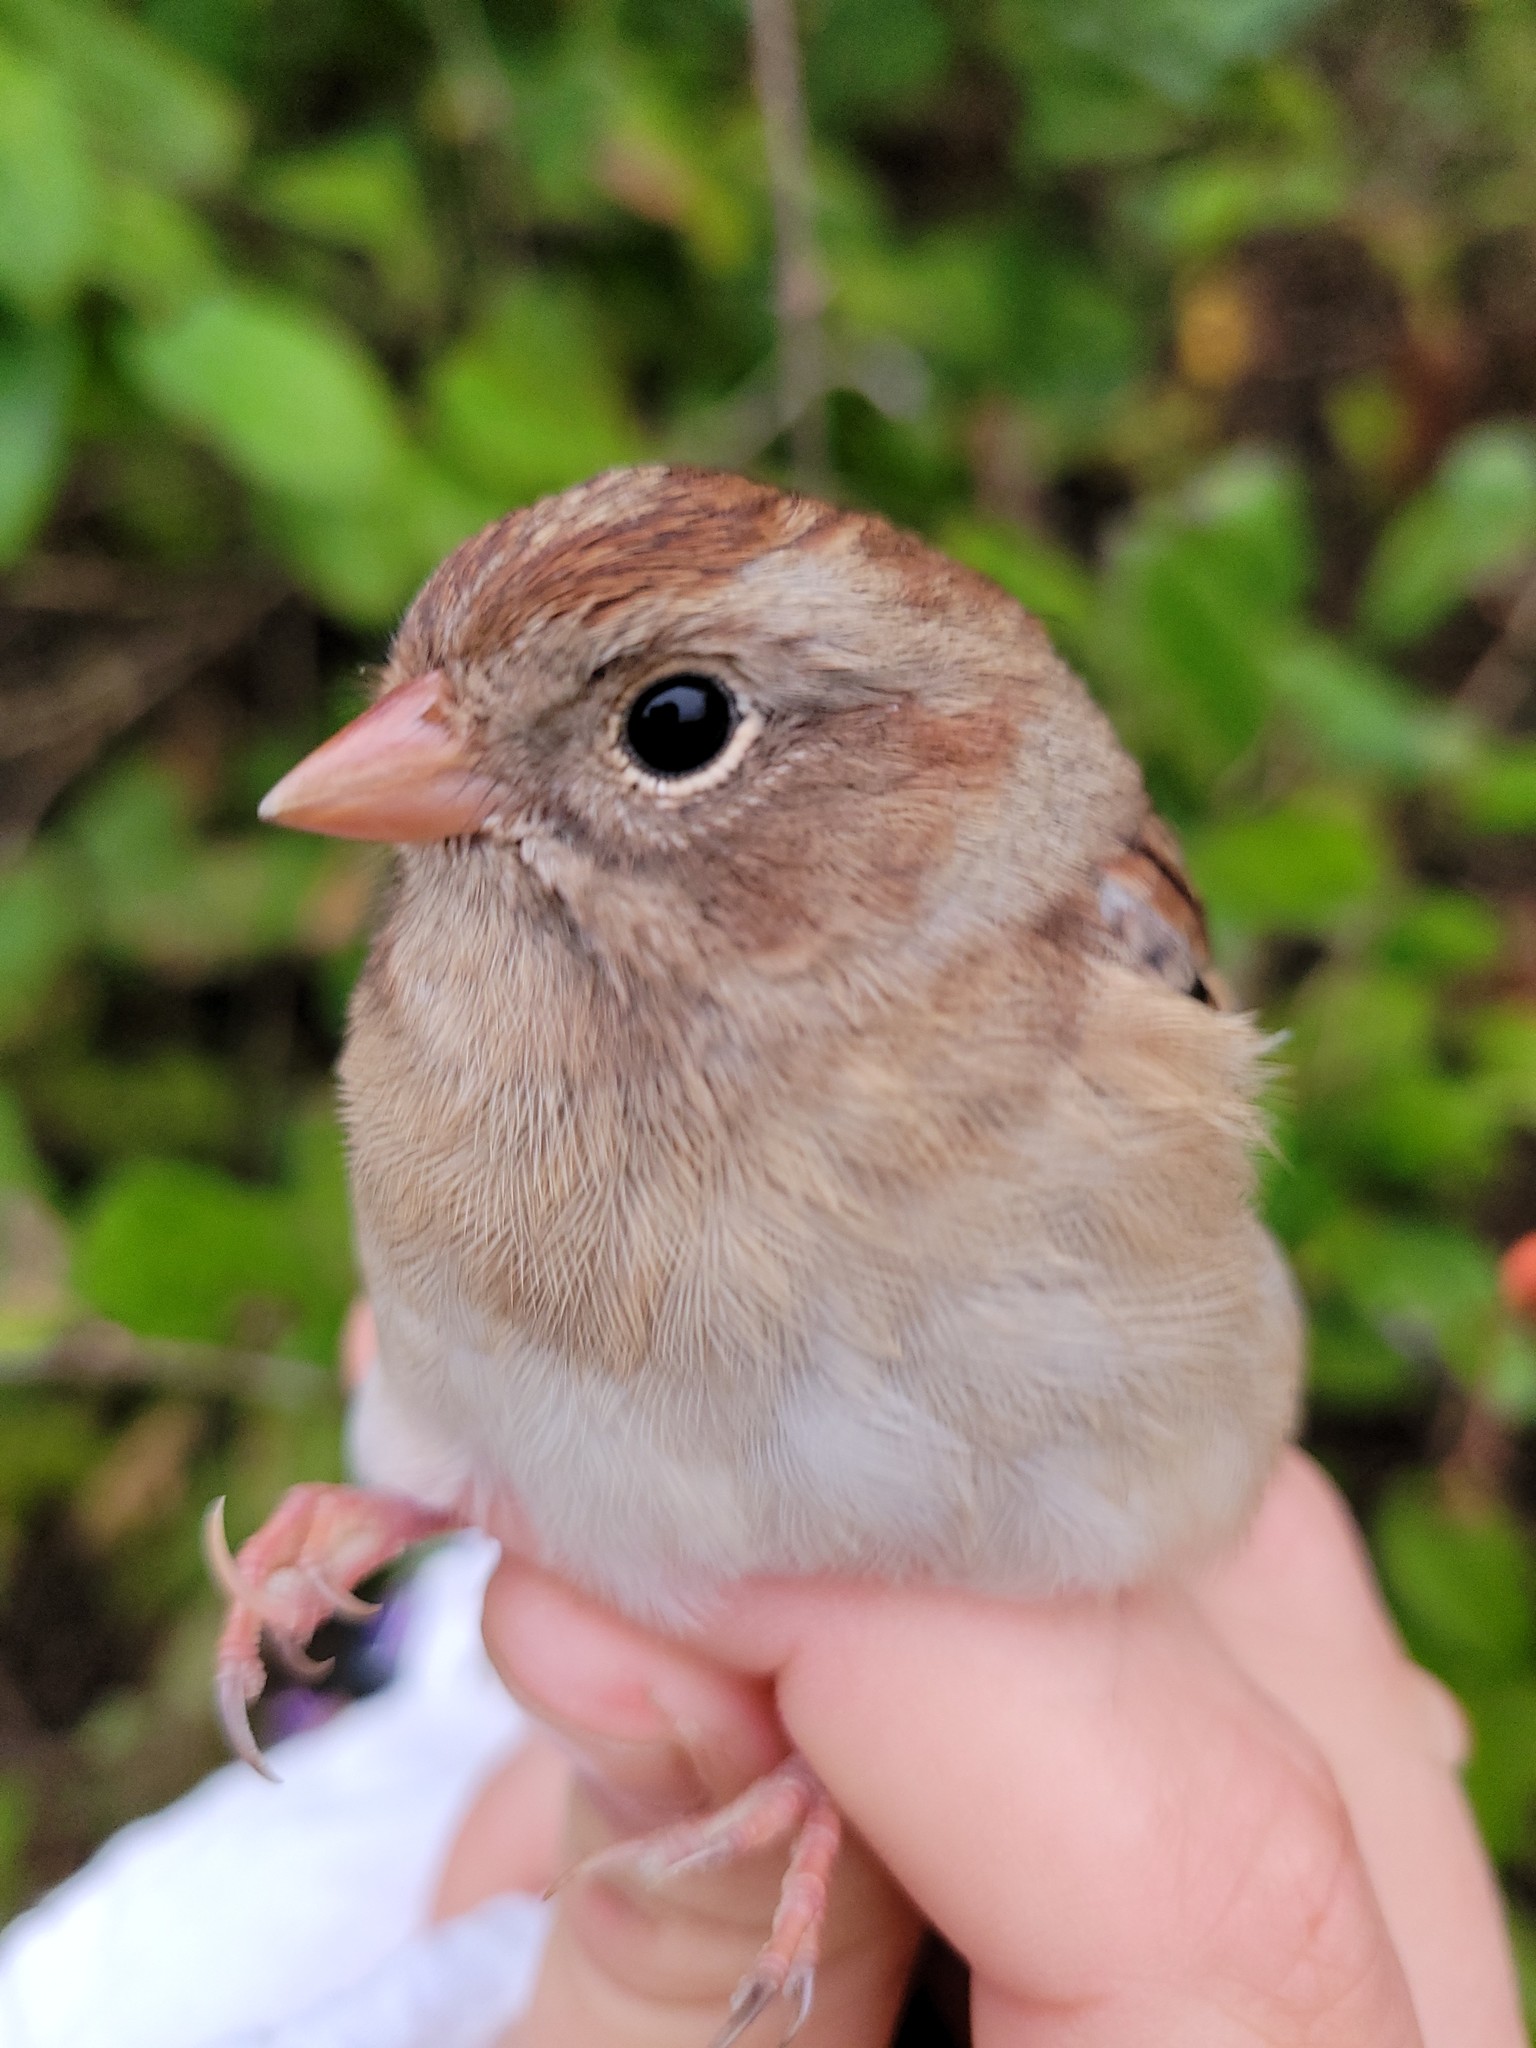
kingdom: Animalia
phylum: Chordata
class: Aves
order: Passeriformes
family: Passerellidae
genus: Spizella
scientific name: Spizella pusilla
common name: Field sparrow
